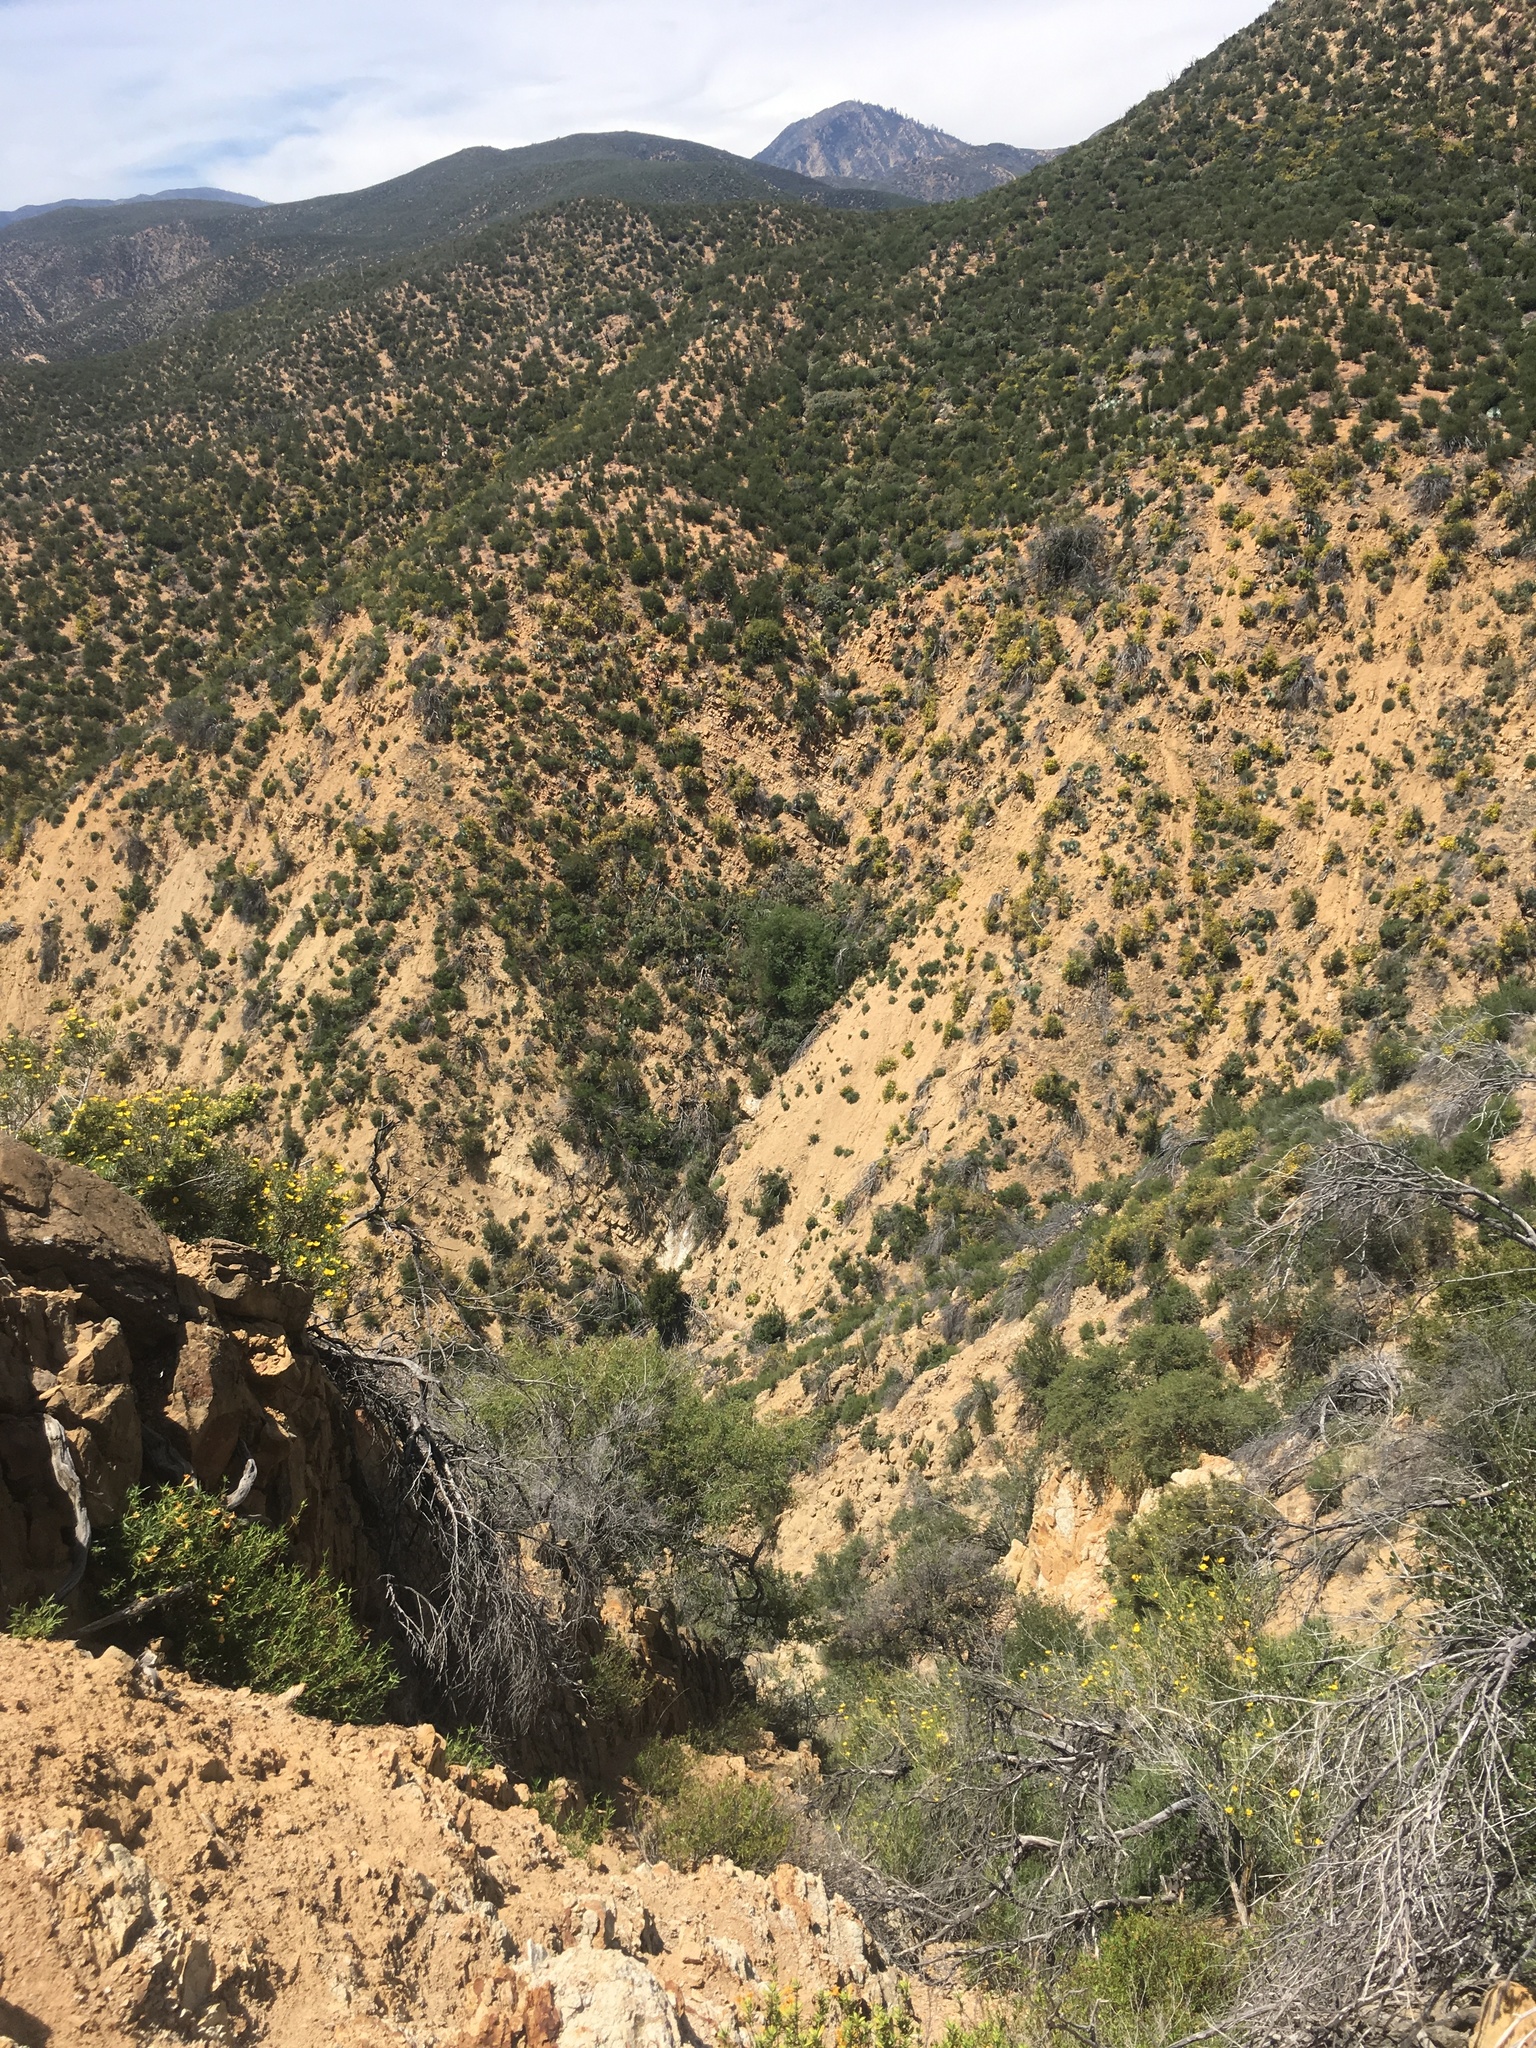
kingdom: Plantae
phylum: Tracheophyta
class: Magnoliopsida
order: Ranunculales
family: Papaveraceae
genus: Dendromecon
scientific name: Dendromecon rigida
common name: Tree poppy
